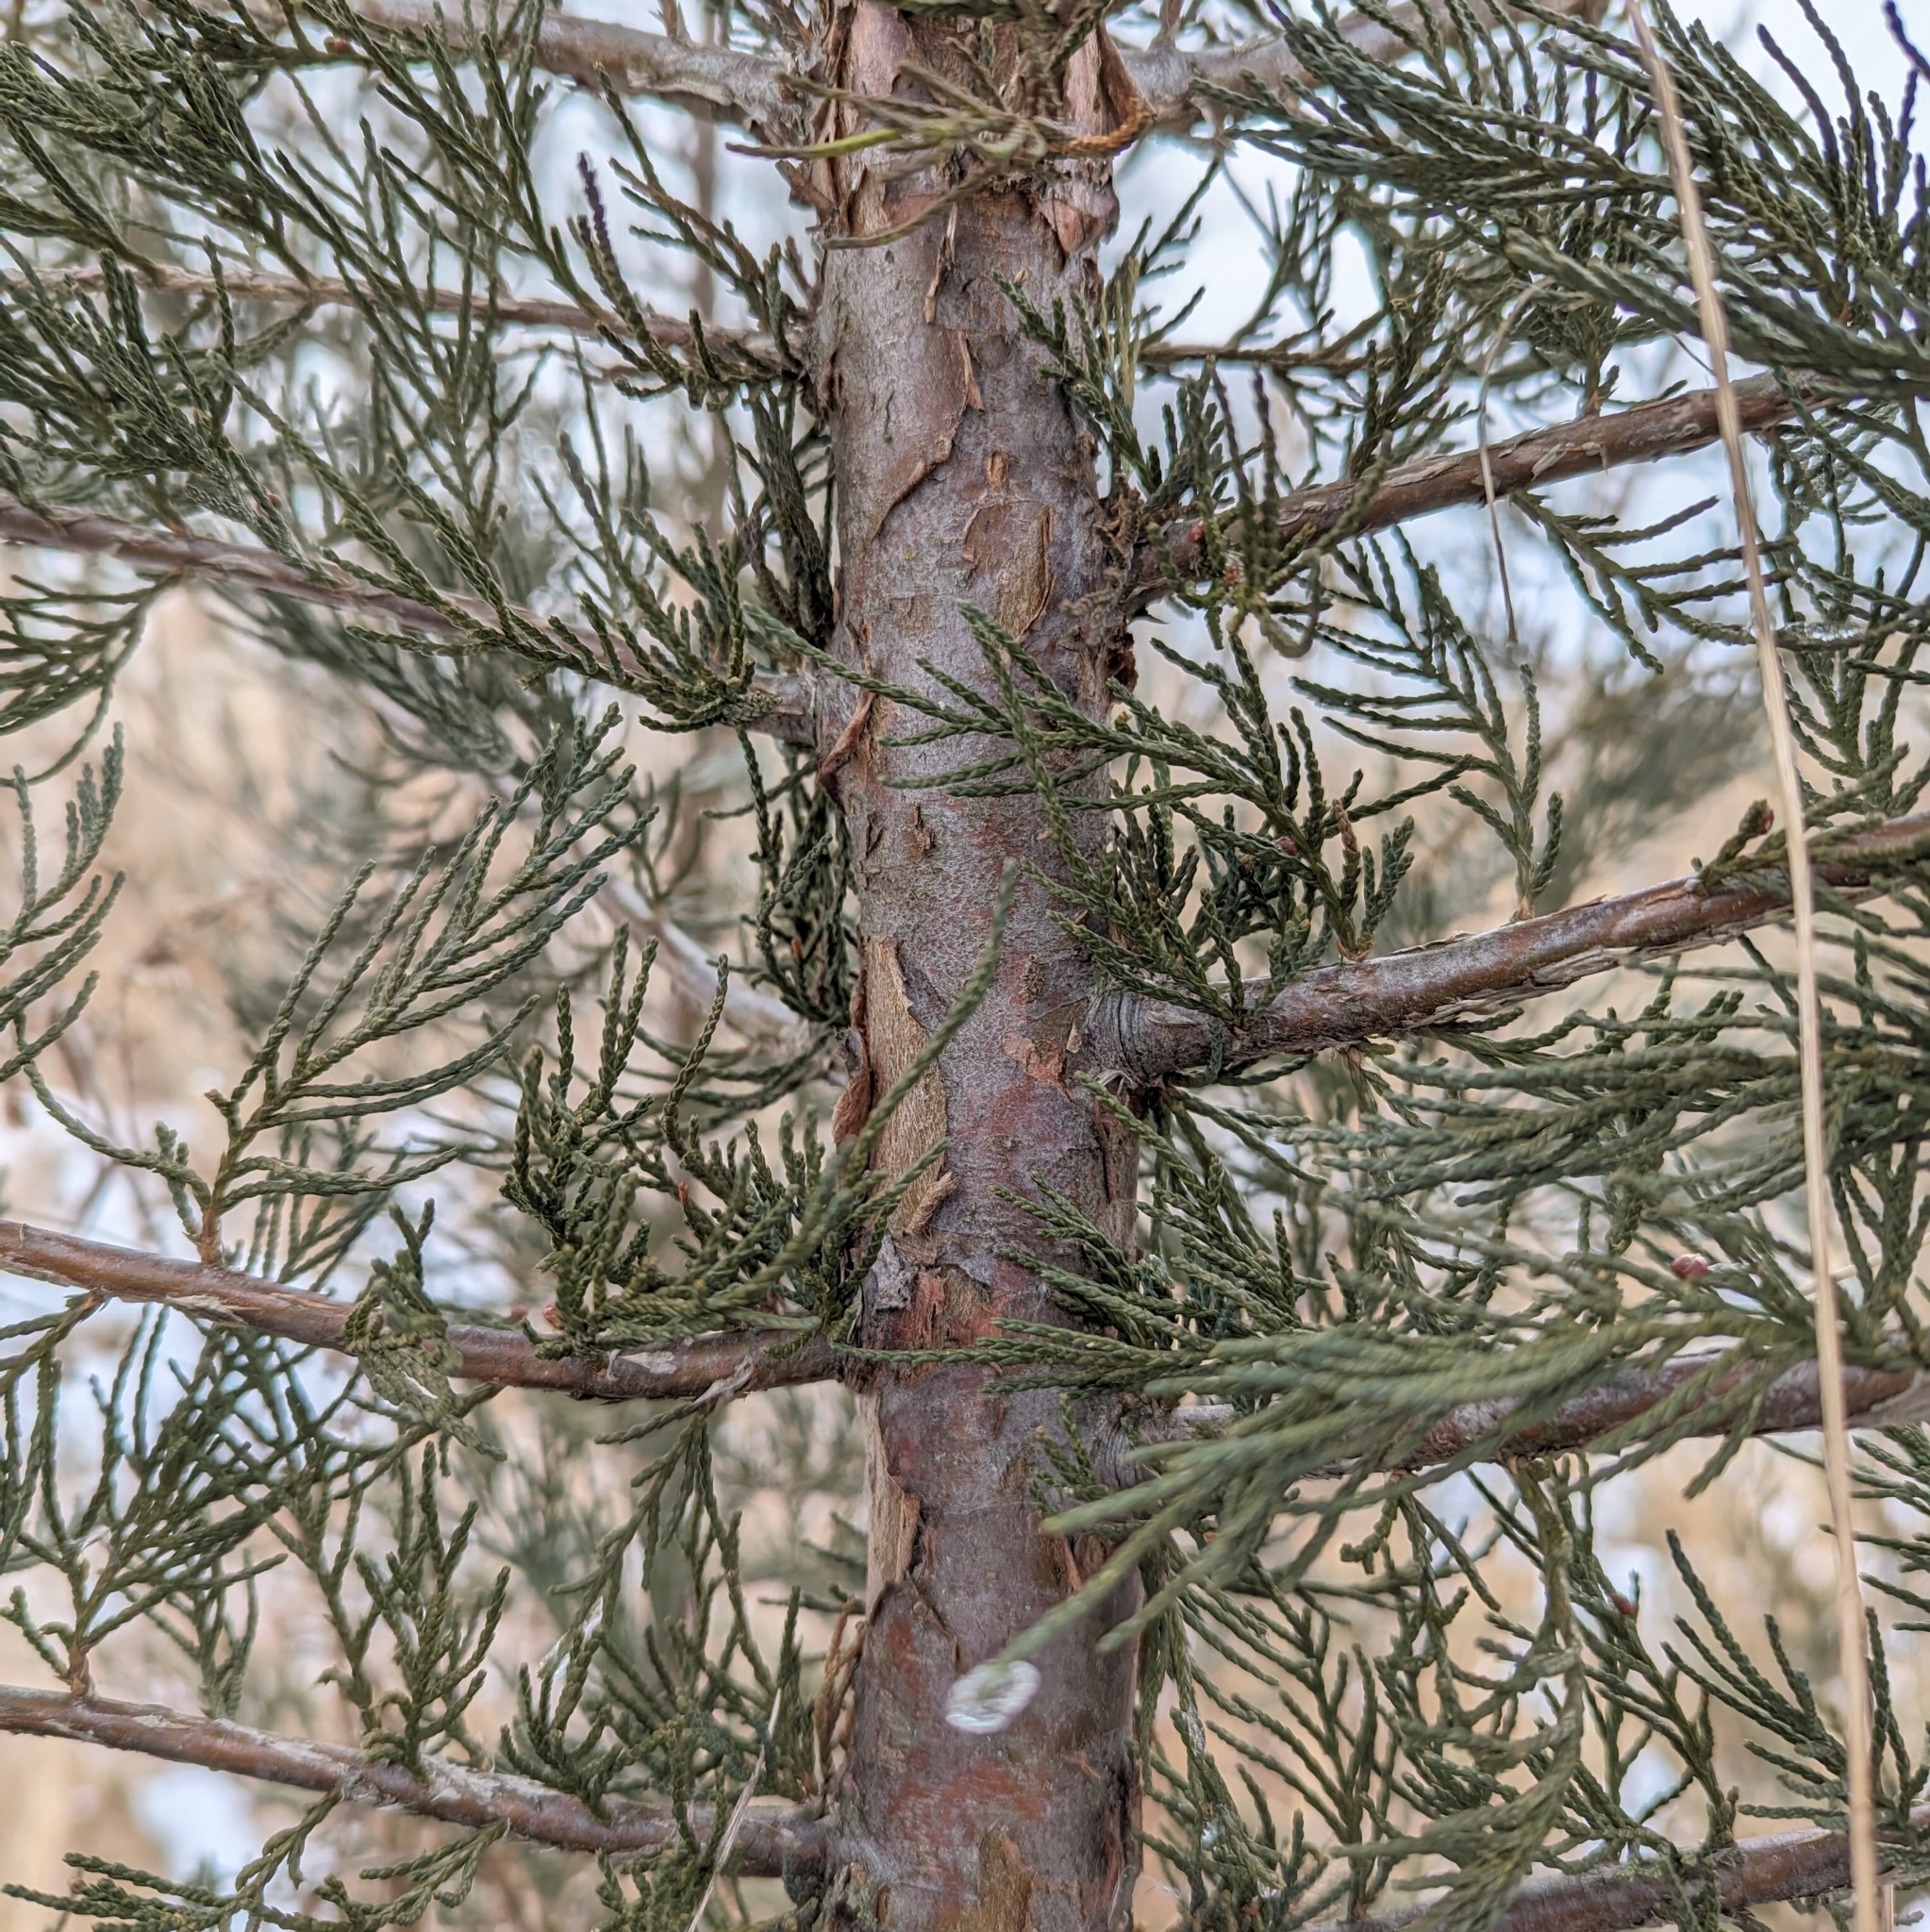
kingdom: Plantae
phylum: Tracheophyta
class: Pinopsida
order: Pinales
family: Cupressaceae
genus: Juniperus
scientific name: Juniperus
